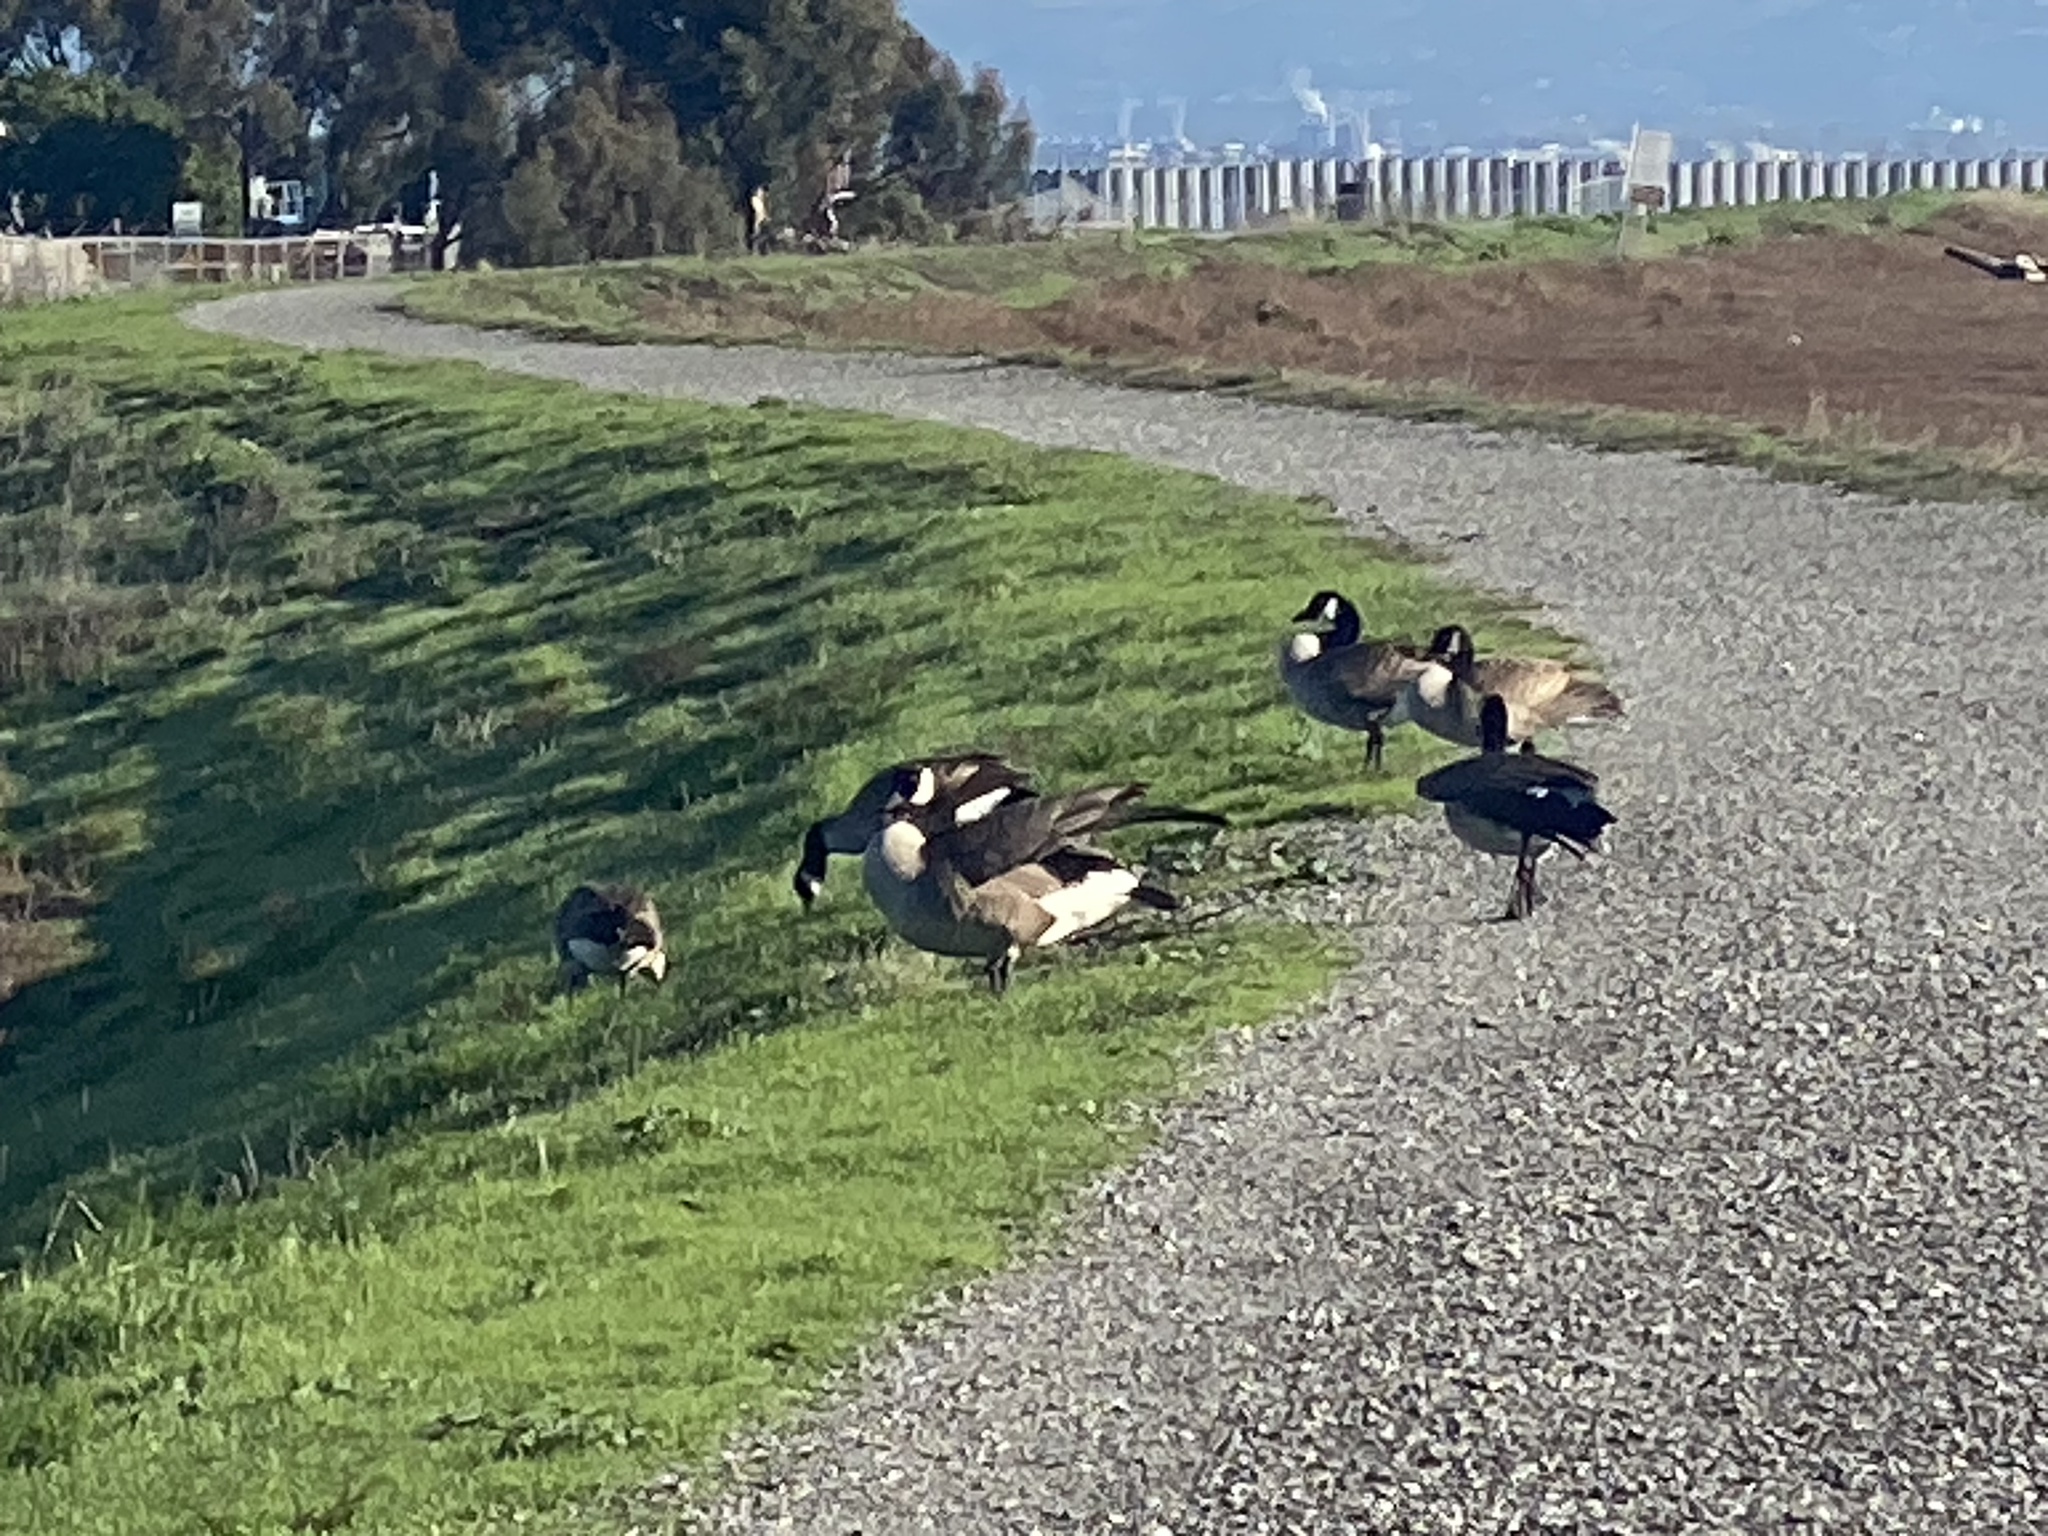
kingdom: Animalia
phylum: Chordata
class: Aves
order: Anseriformes
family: Anatidae
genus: Branta
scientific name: Branta canadensis
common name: Canada goose
